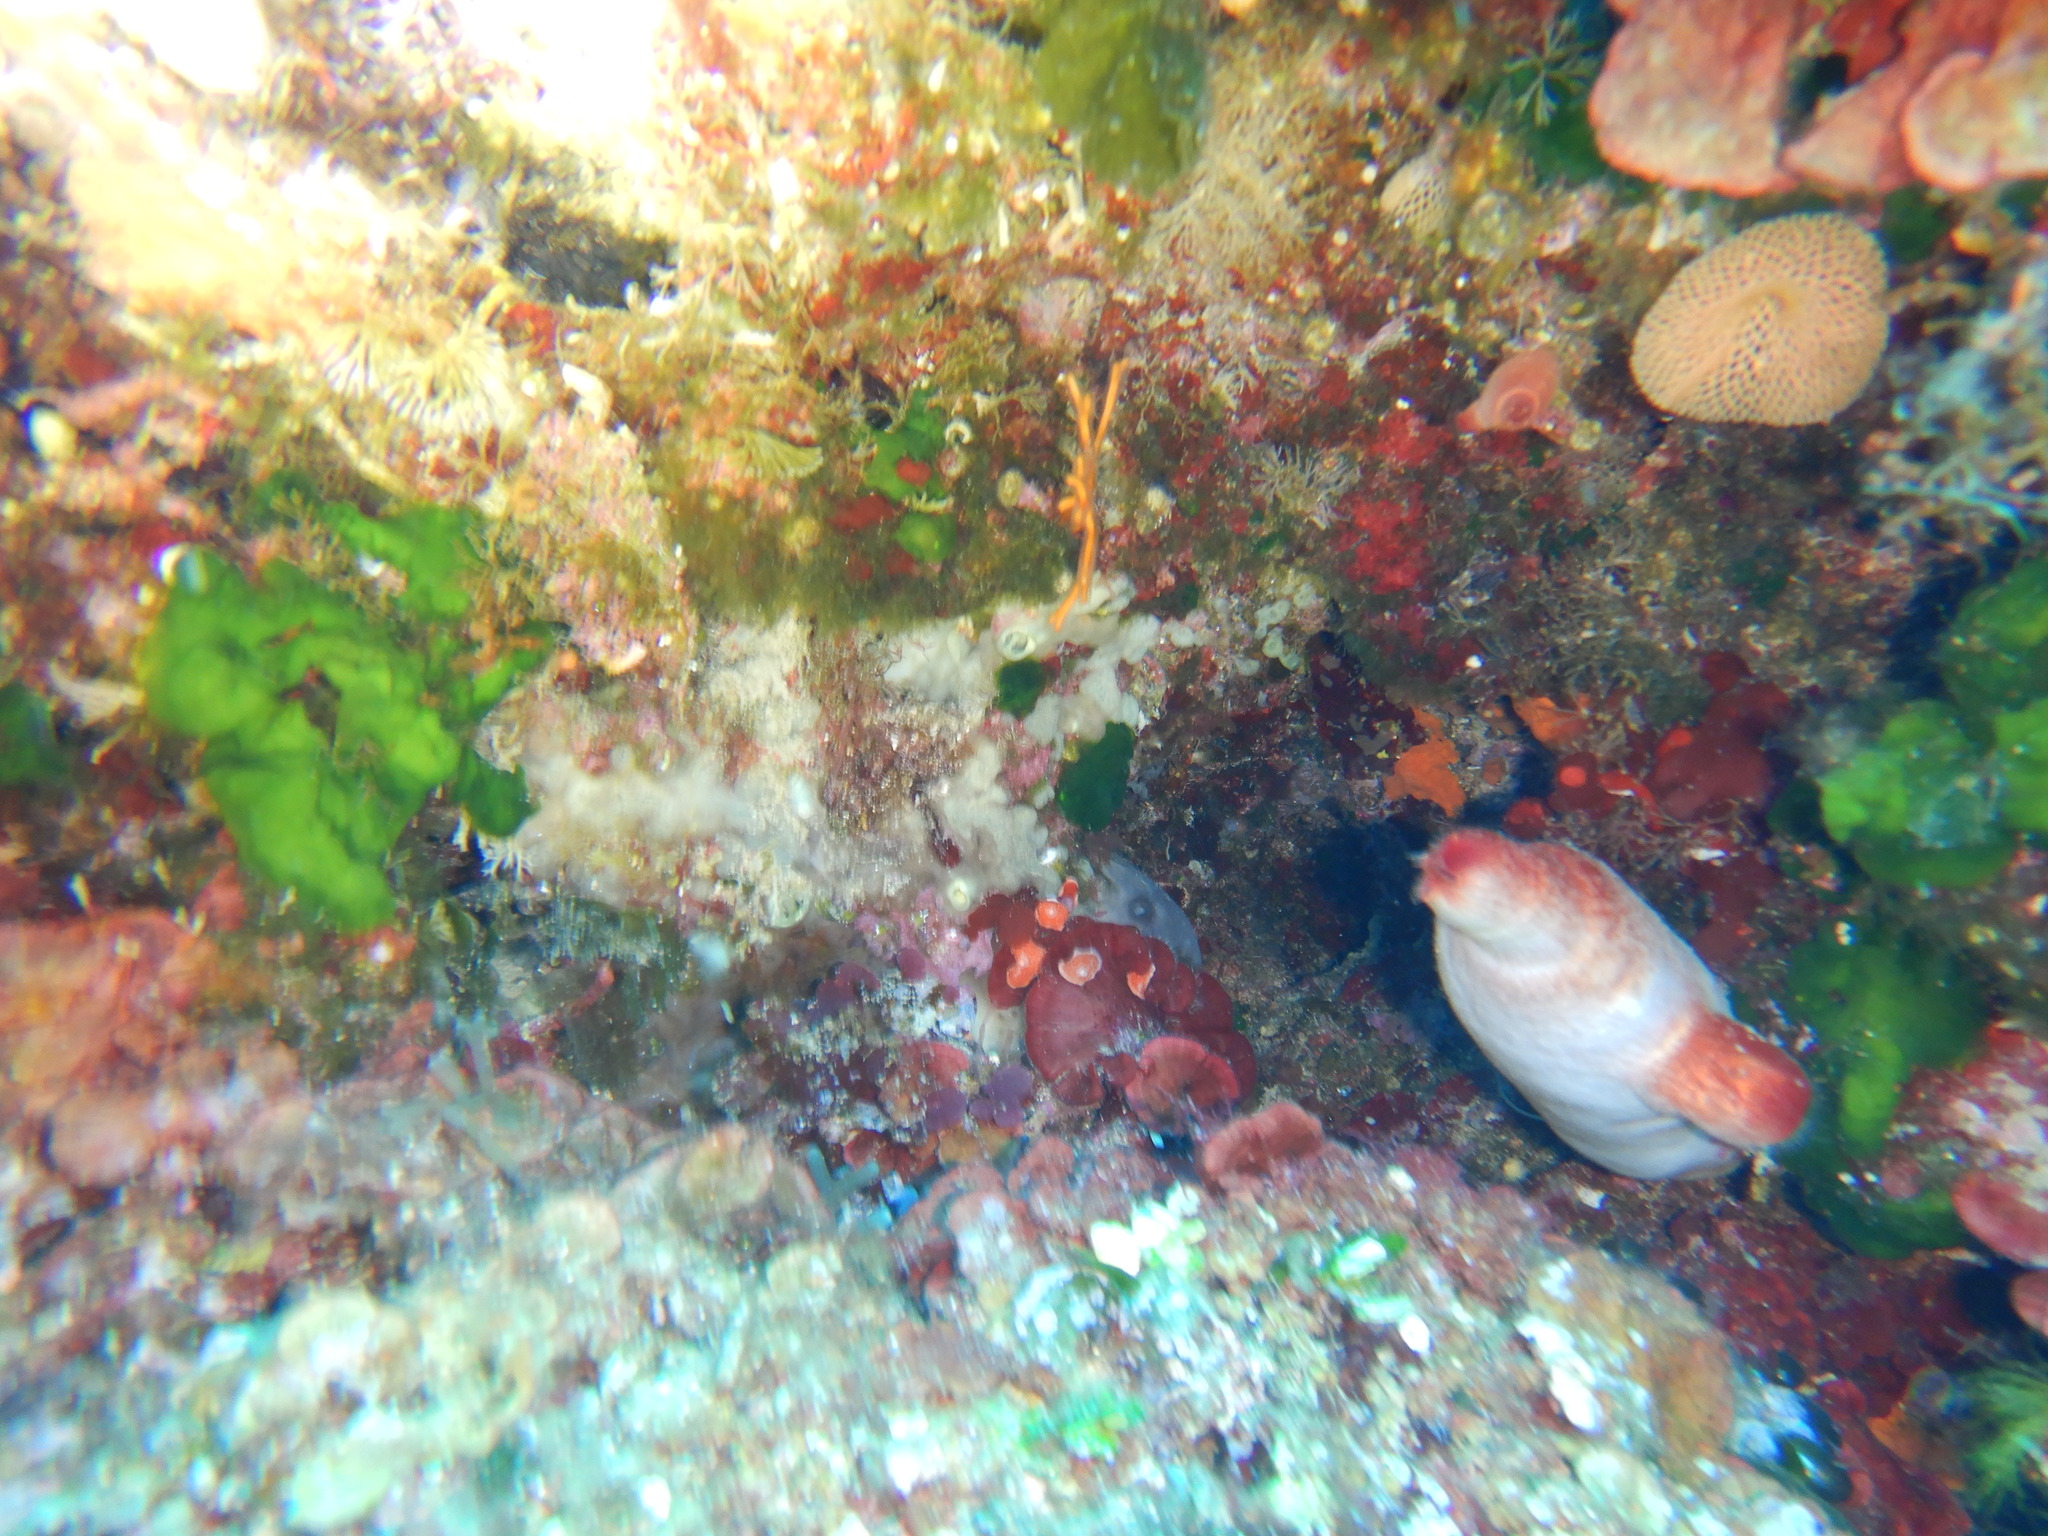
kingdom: Animalia
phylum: Chordata
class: Ascidiacea
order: Stolidobranchia
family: Pyuridae
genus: Halocynthia
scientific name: Halocynthia papillosa
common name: Red sea-squirt
